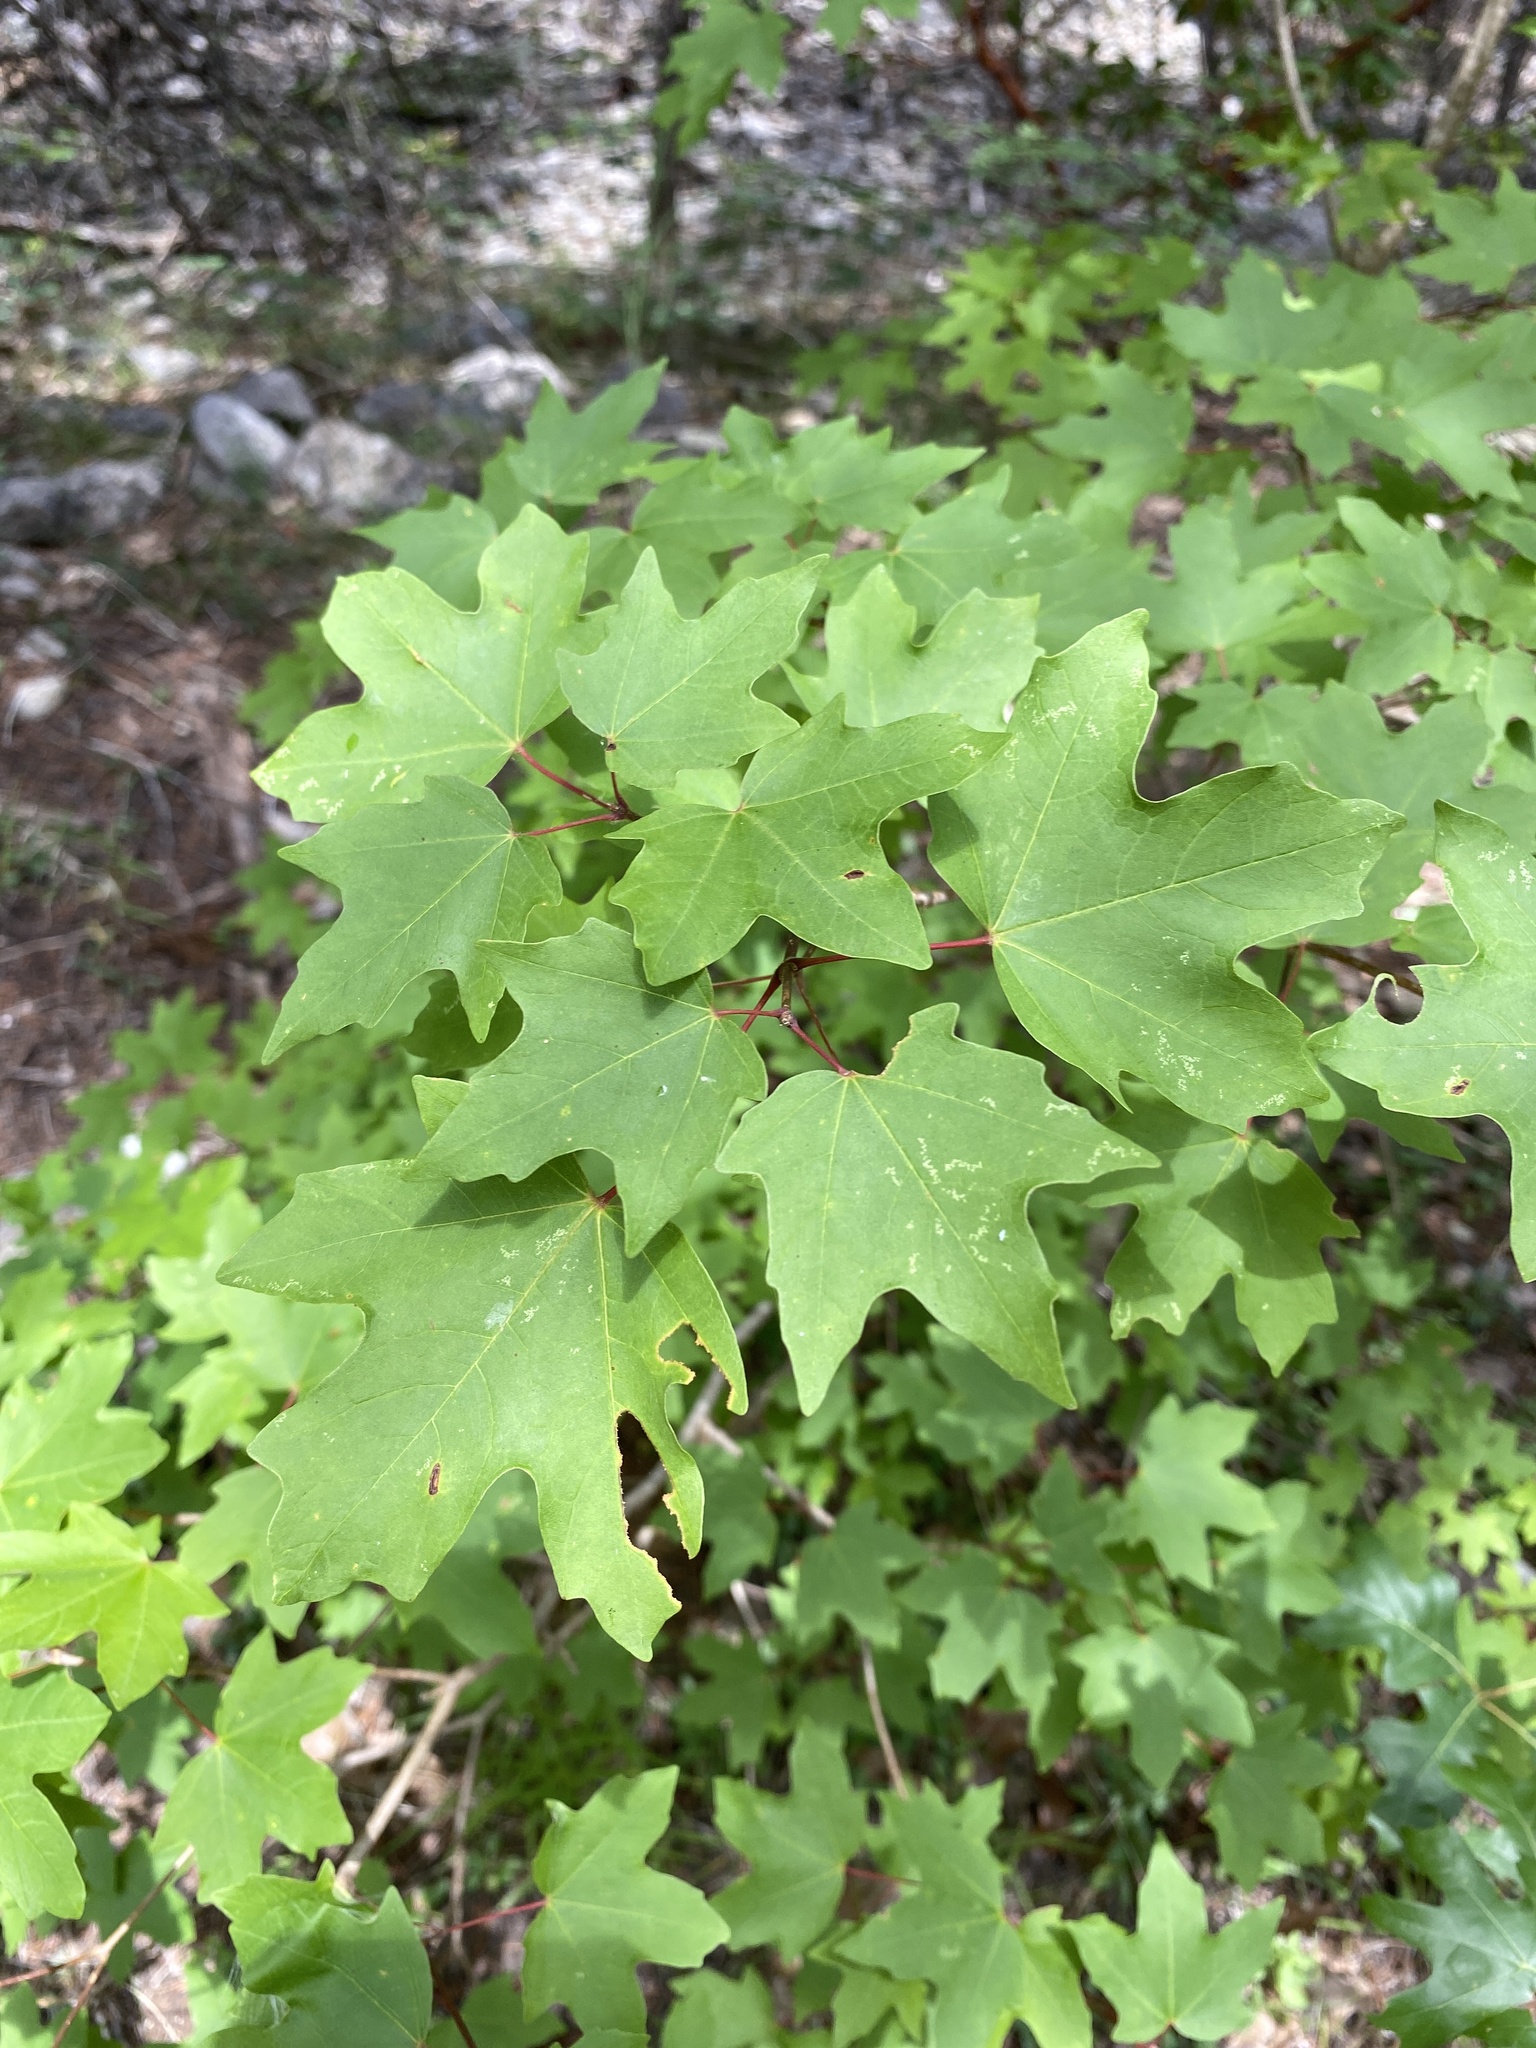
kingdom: Plantae
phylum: Tracheophyta
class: Magnoliopsida
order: Sapindales
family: Sapindaceae
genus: Acer
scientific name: Acer grandidentatum
